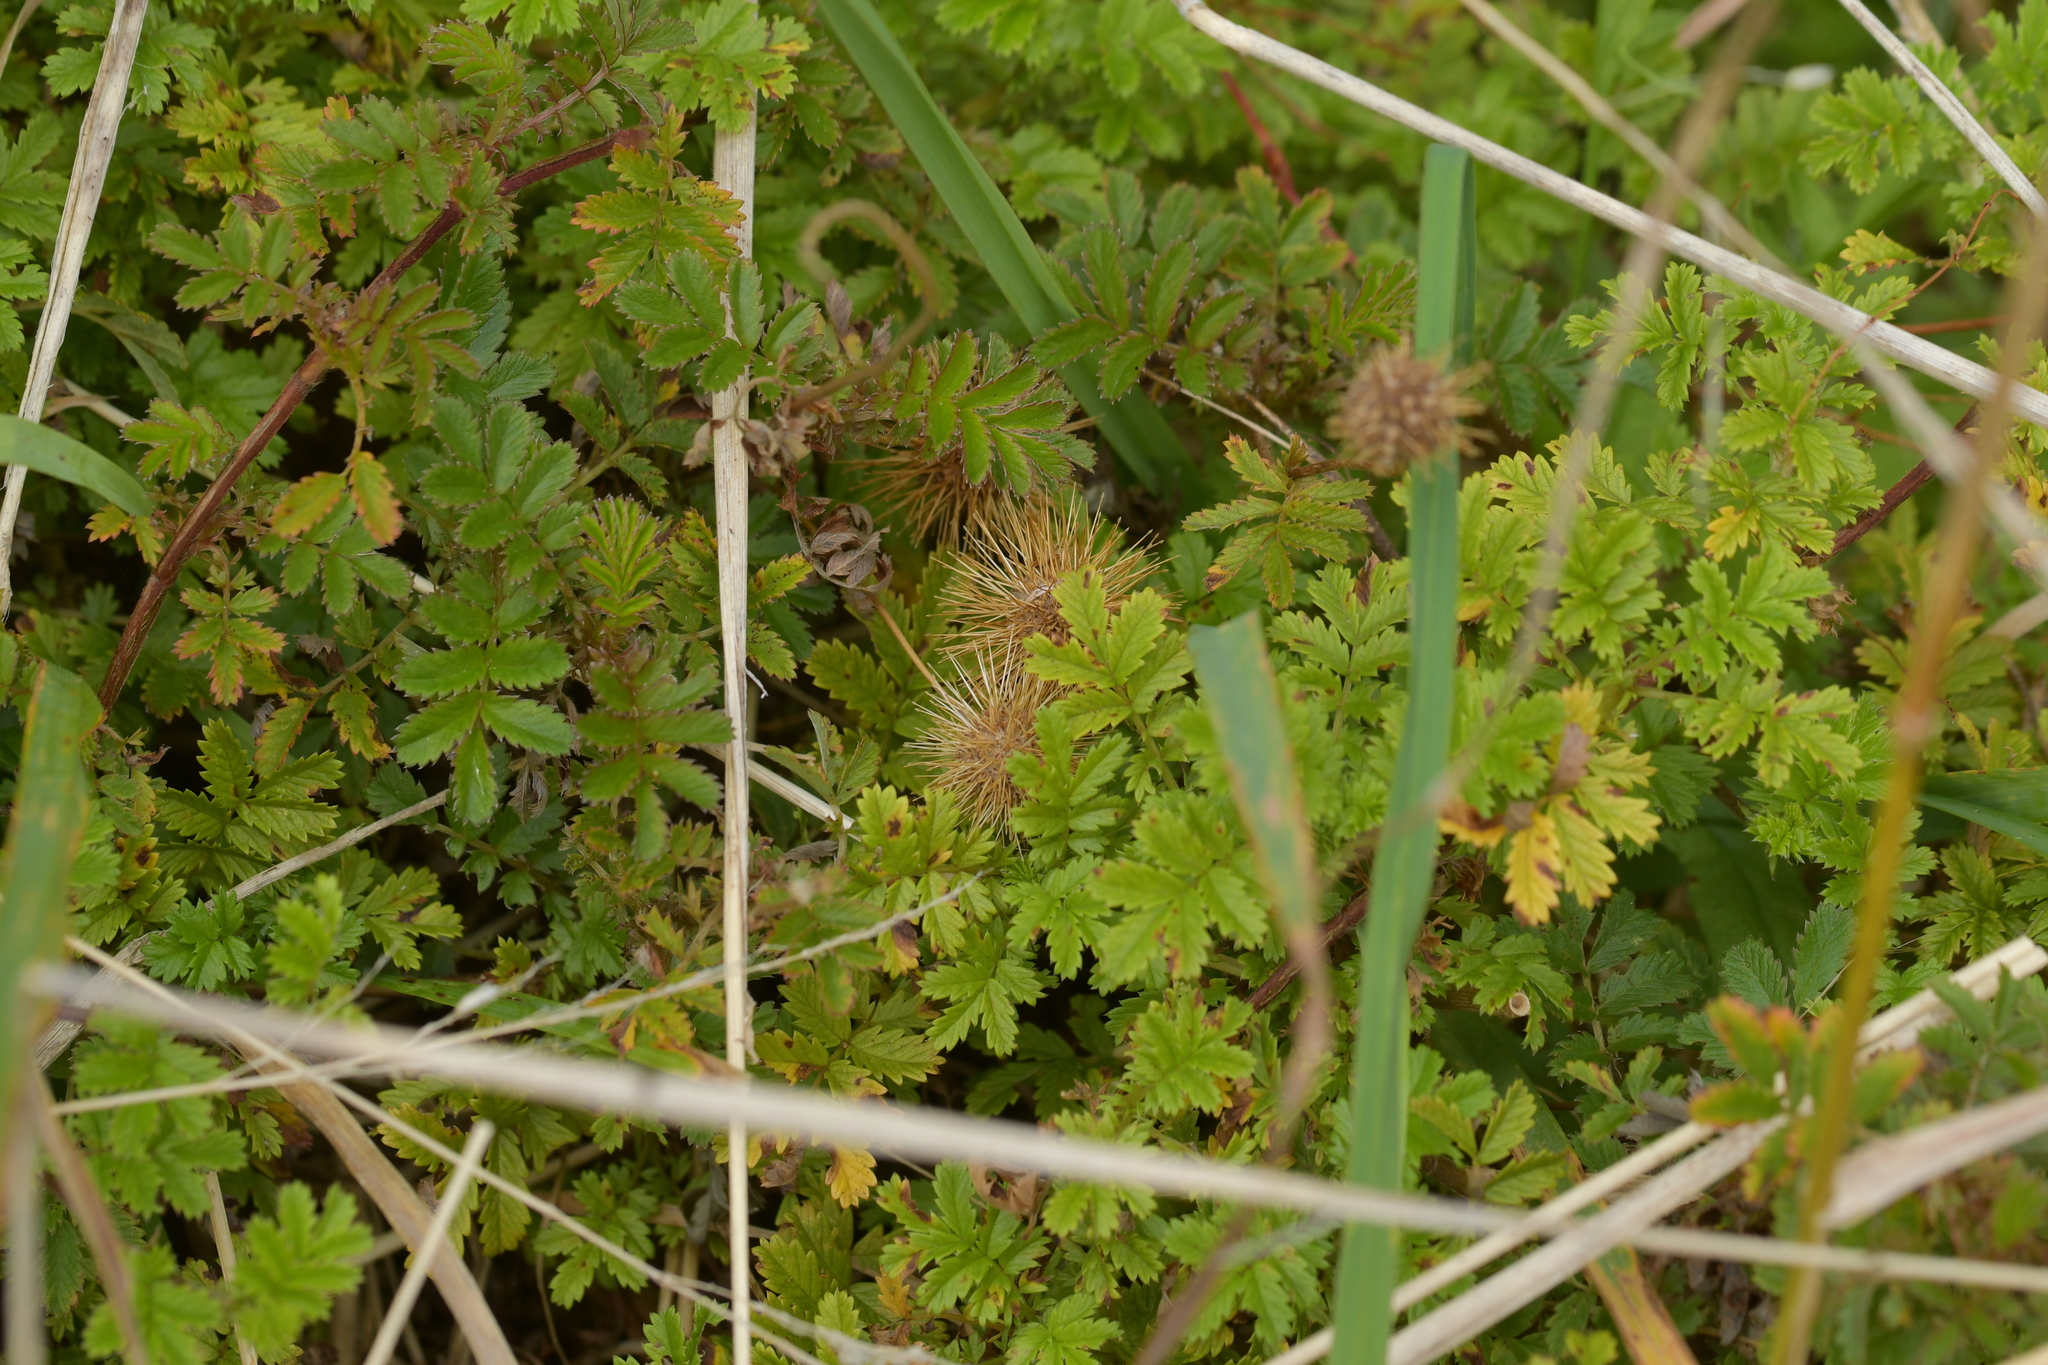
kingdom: Plantae
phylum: Tracheophyta
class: Magnoliopsida
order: Rosales
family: Rosaceae
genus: Acaena
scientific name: Acaena anserinifolia
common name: Bronze pirri-pirri-bur
